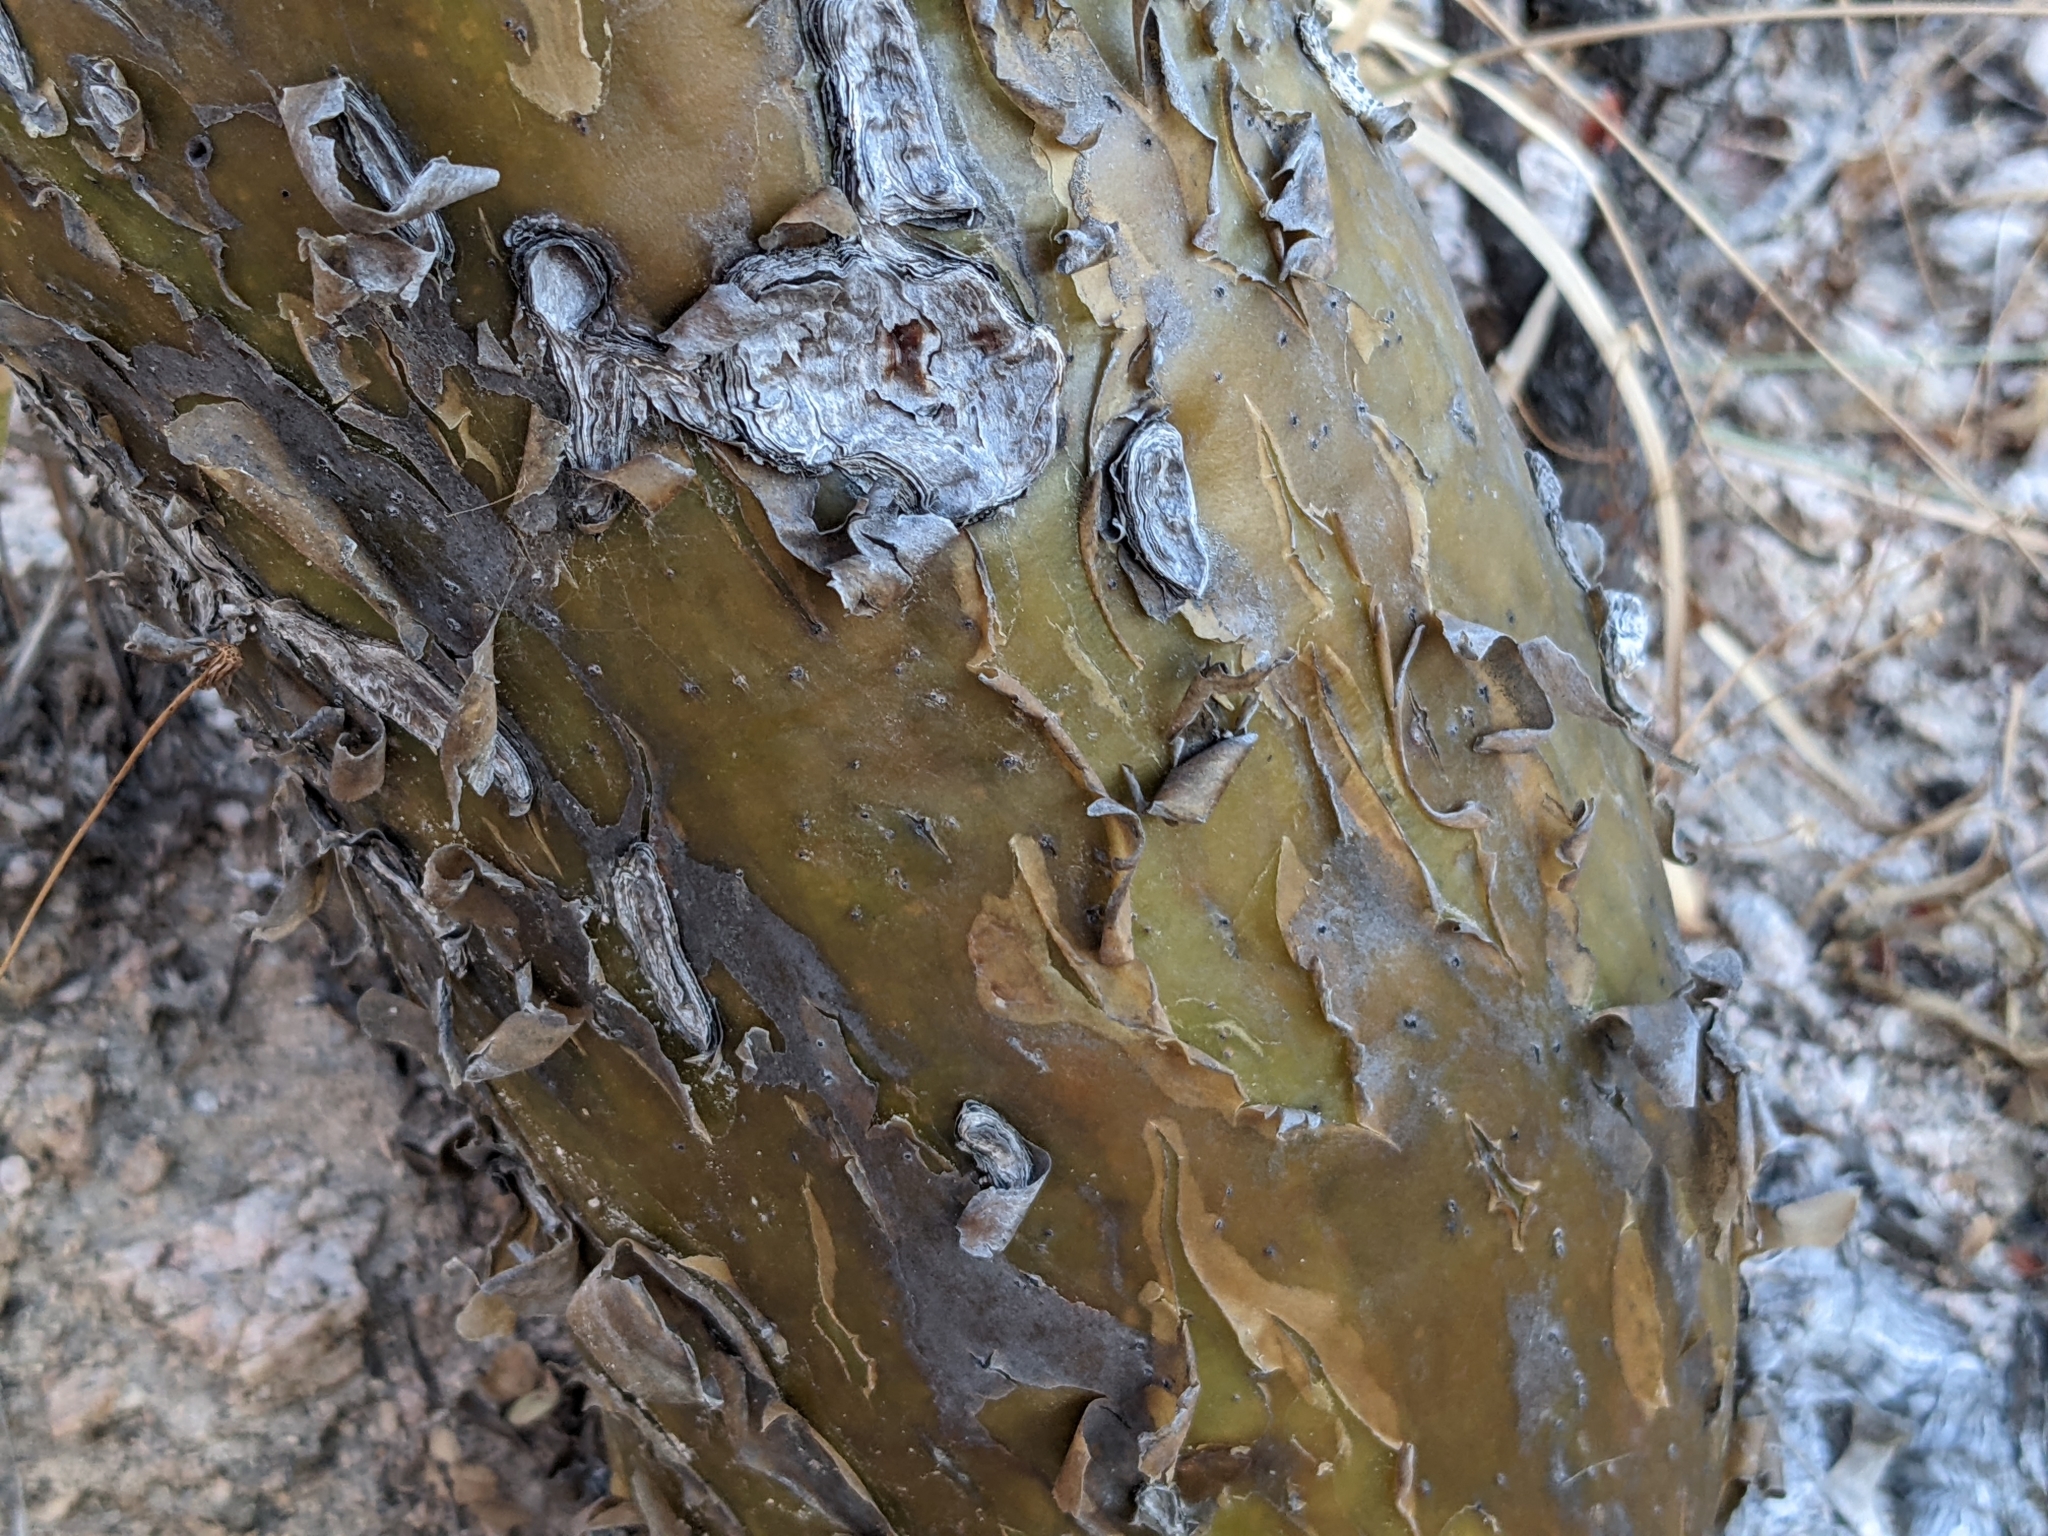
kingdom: Plantae
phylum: Tracheophyta
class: Magnoliopsida
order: Ericales
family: Fouquieriaceae
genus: Fouquieria
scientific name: Fouquieria diguetii
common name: Adam's tree
